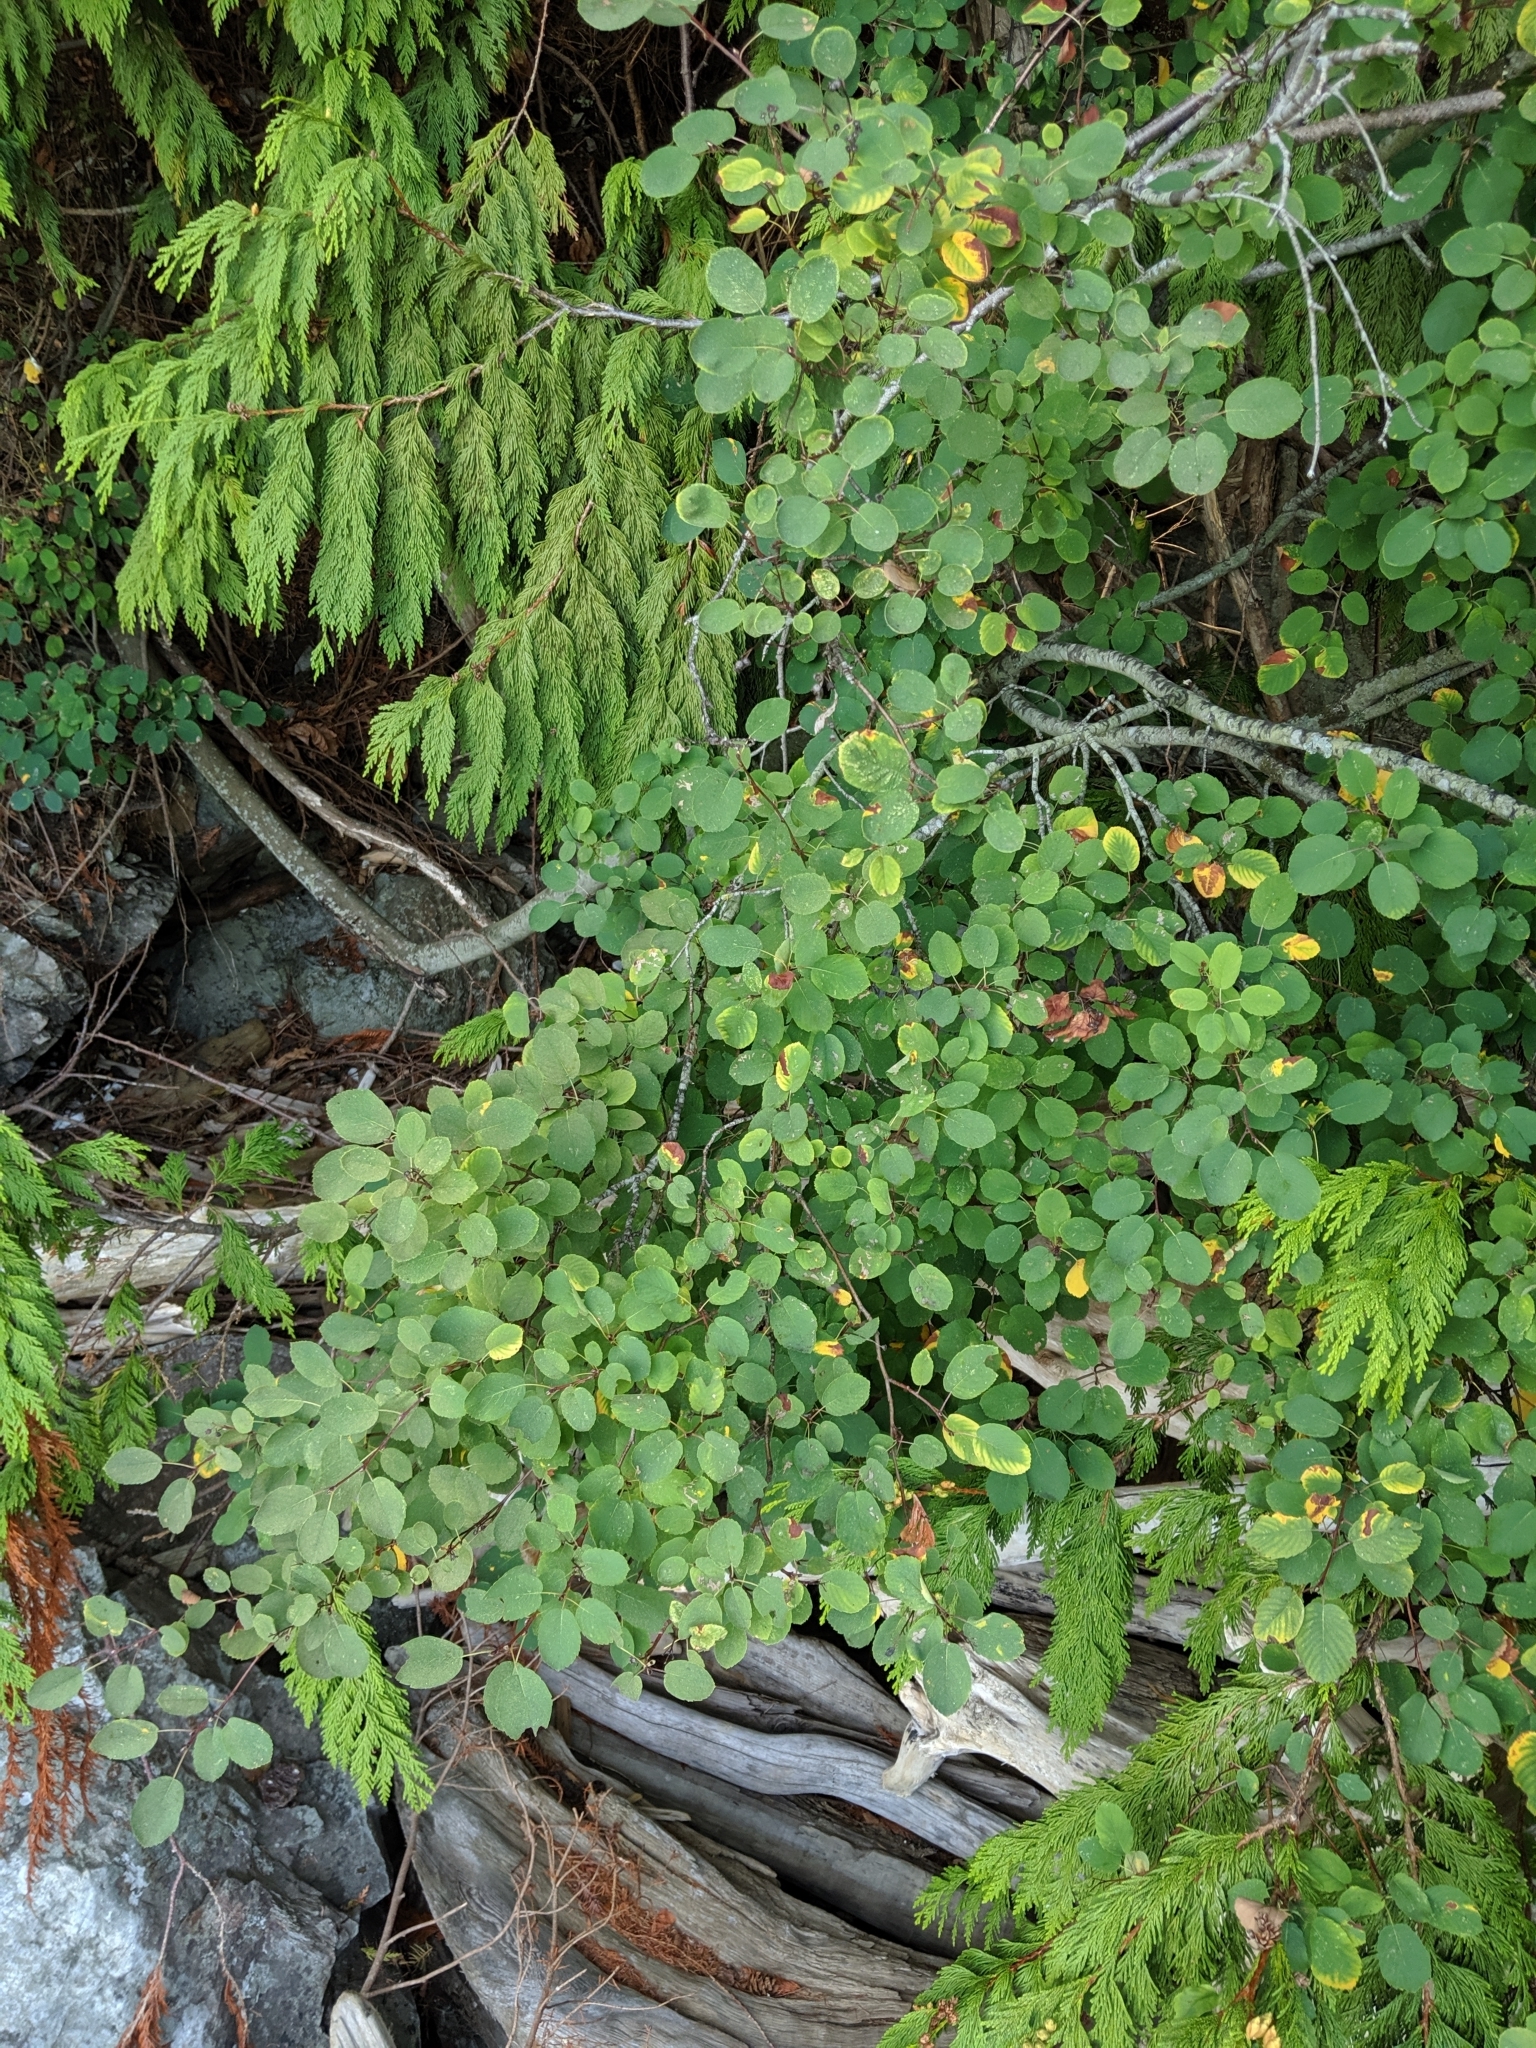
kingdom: Plantae
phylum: Tracheophyta
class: Magnoliopsida
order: Rosales
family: Rosaceae
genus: Amelanchier
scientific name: Amelanchier alnifolia
